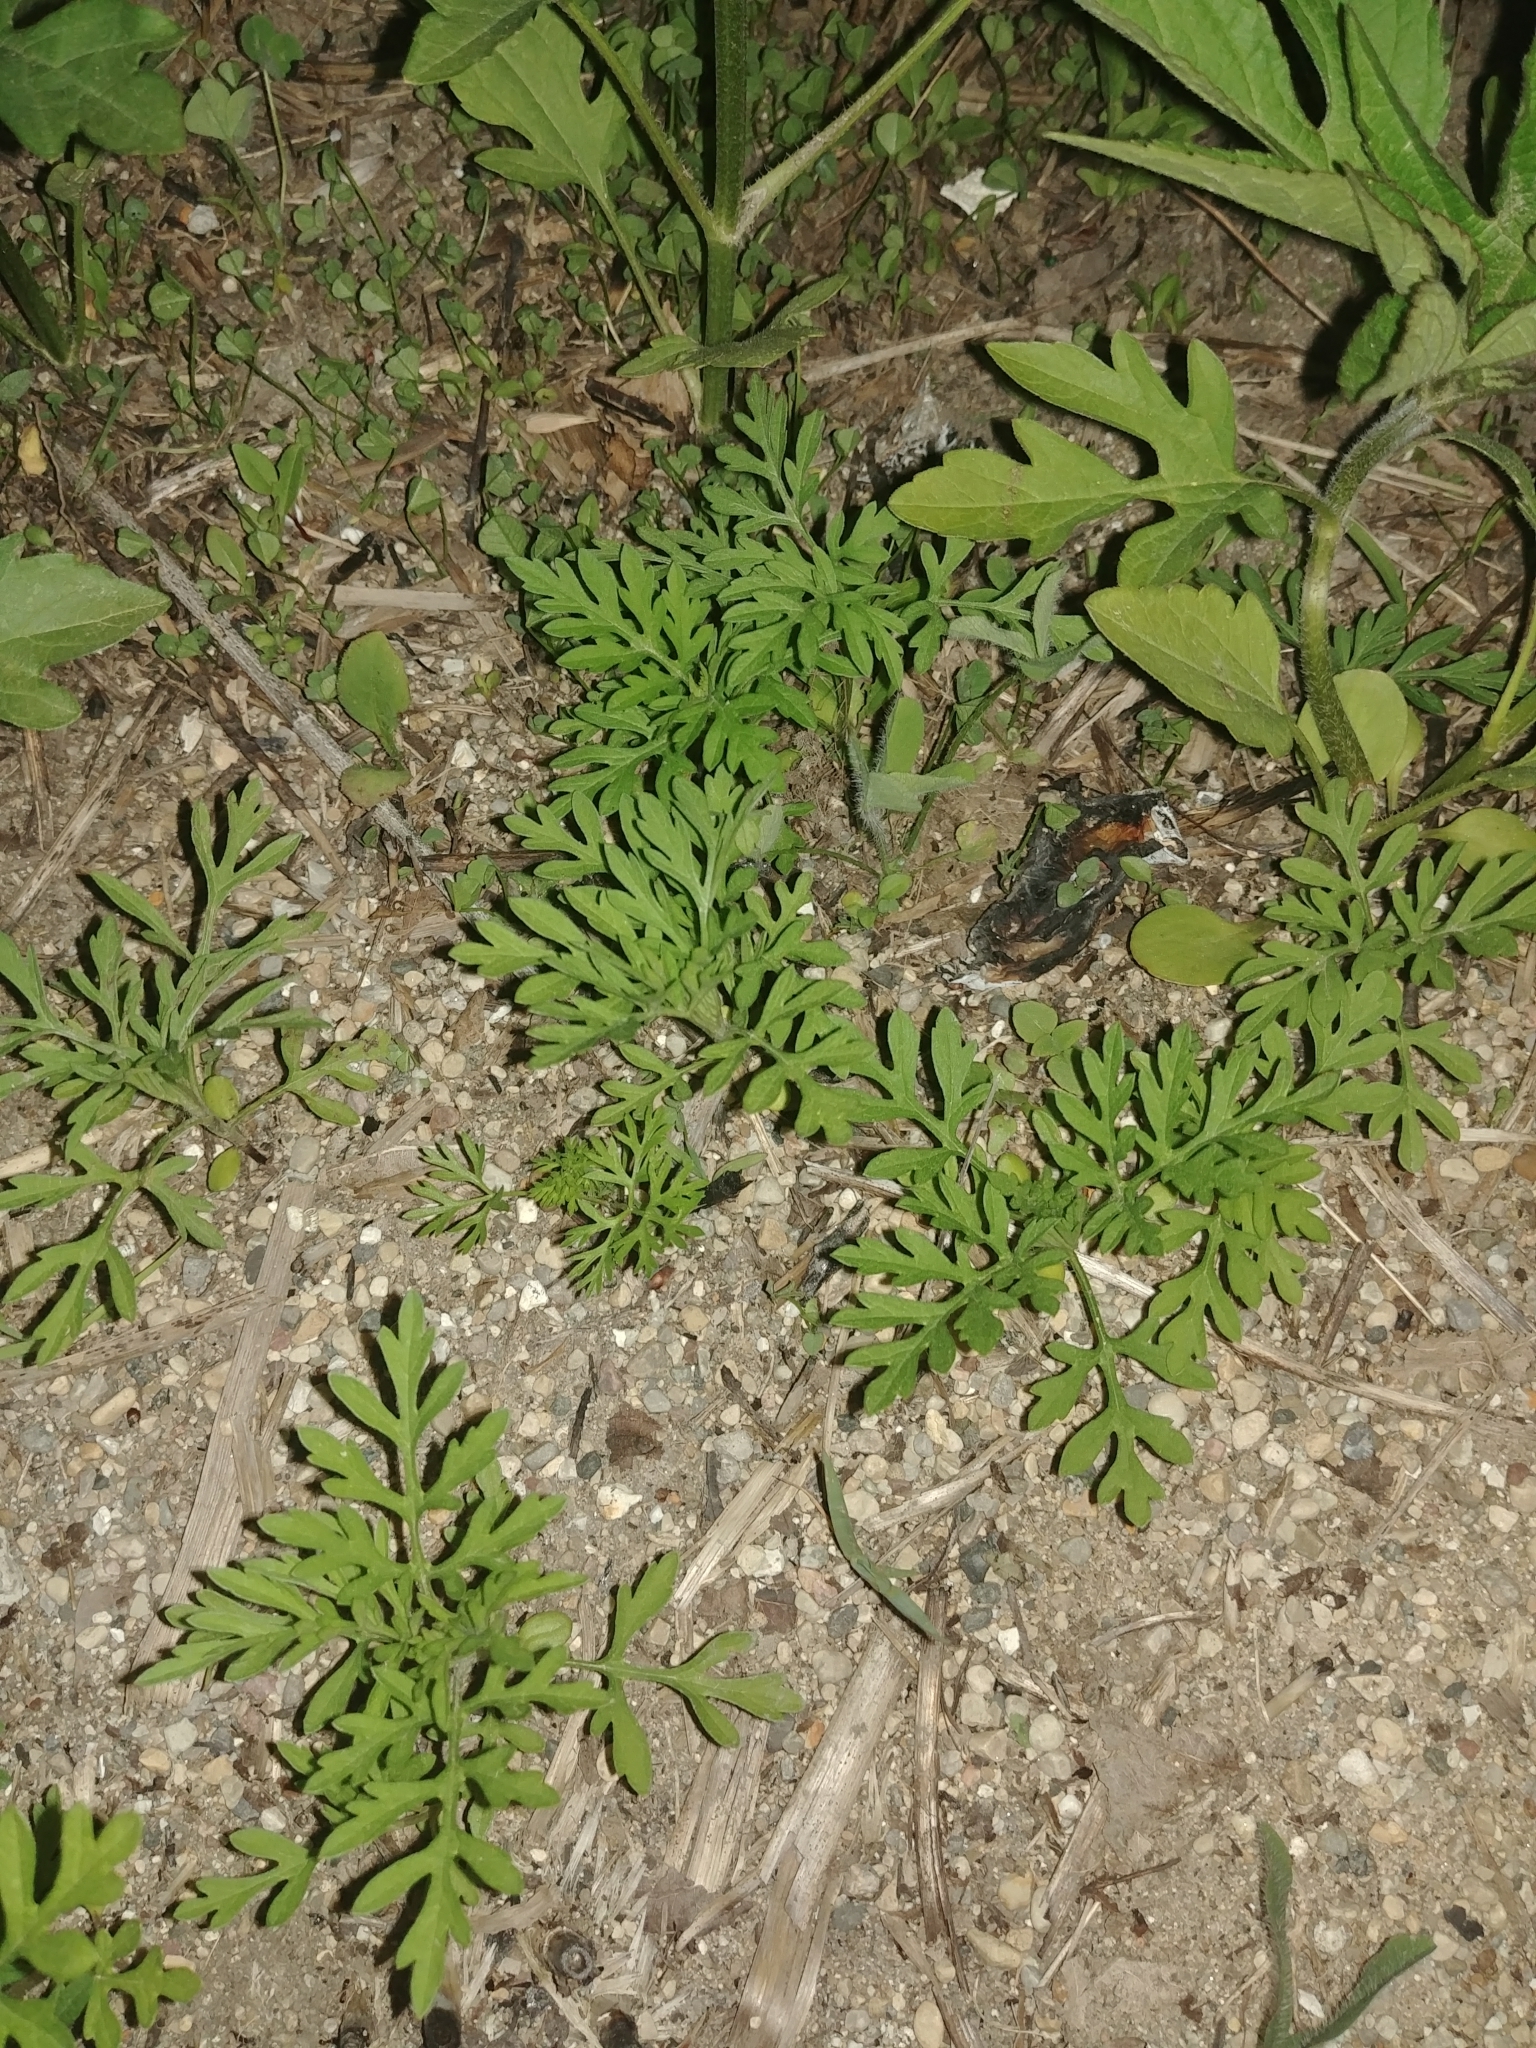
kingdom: Plantae
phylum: Tracheophyta
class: Magnoliopsida
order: Asterales
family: Asteraceae
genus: Ambrosia
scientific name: Ambrosia artemisiifolia
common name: Annual ragweed
